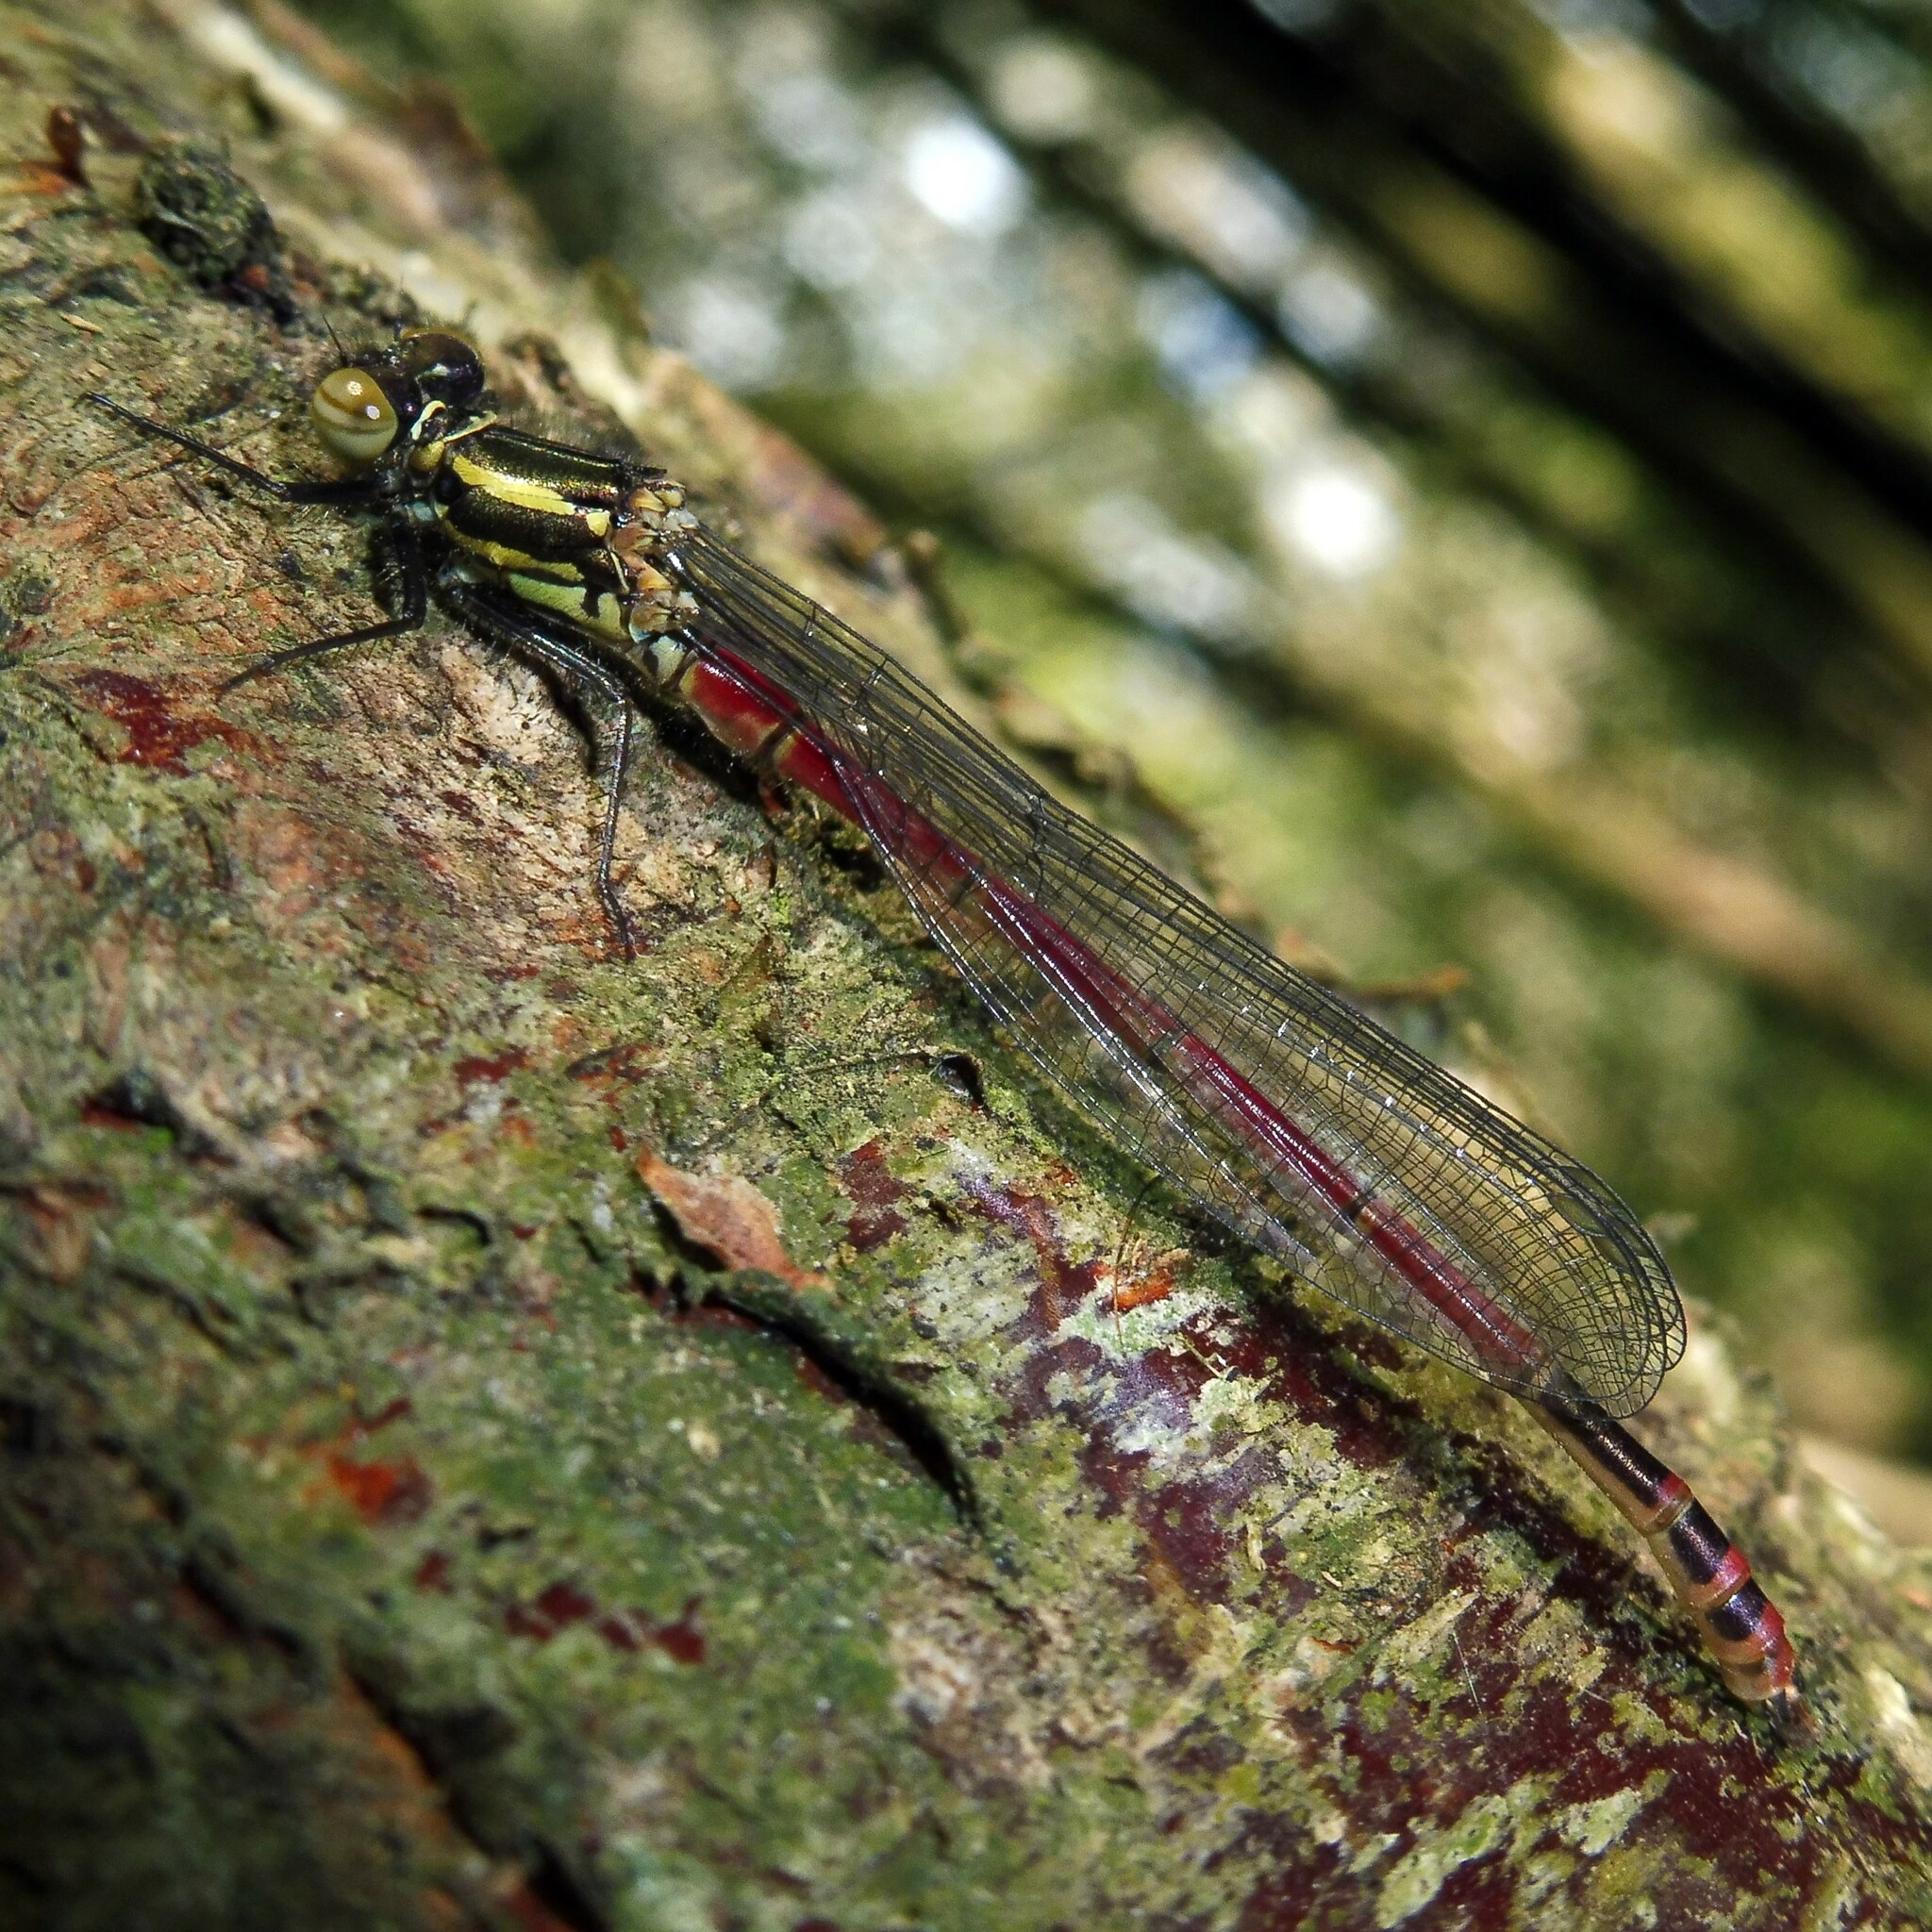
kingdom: Animalia
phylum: Arthropoda
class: Insecta
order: Odonata
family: Coenagrionidae
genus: Pyrrhosoma
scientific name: Pyrrhosoma nymphula
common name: Large red damsel
